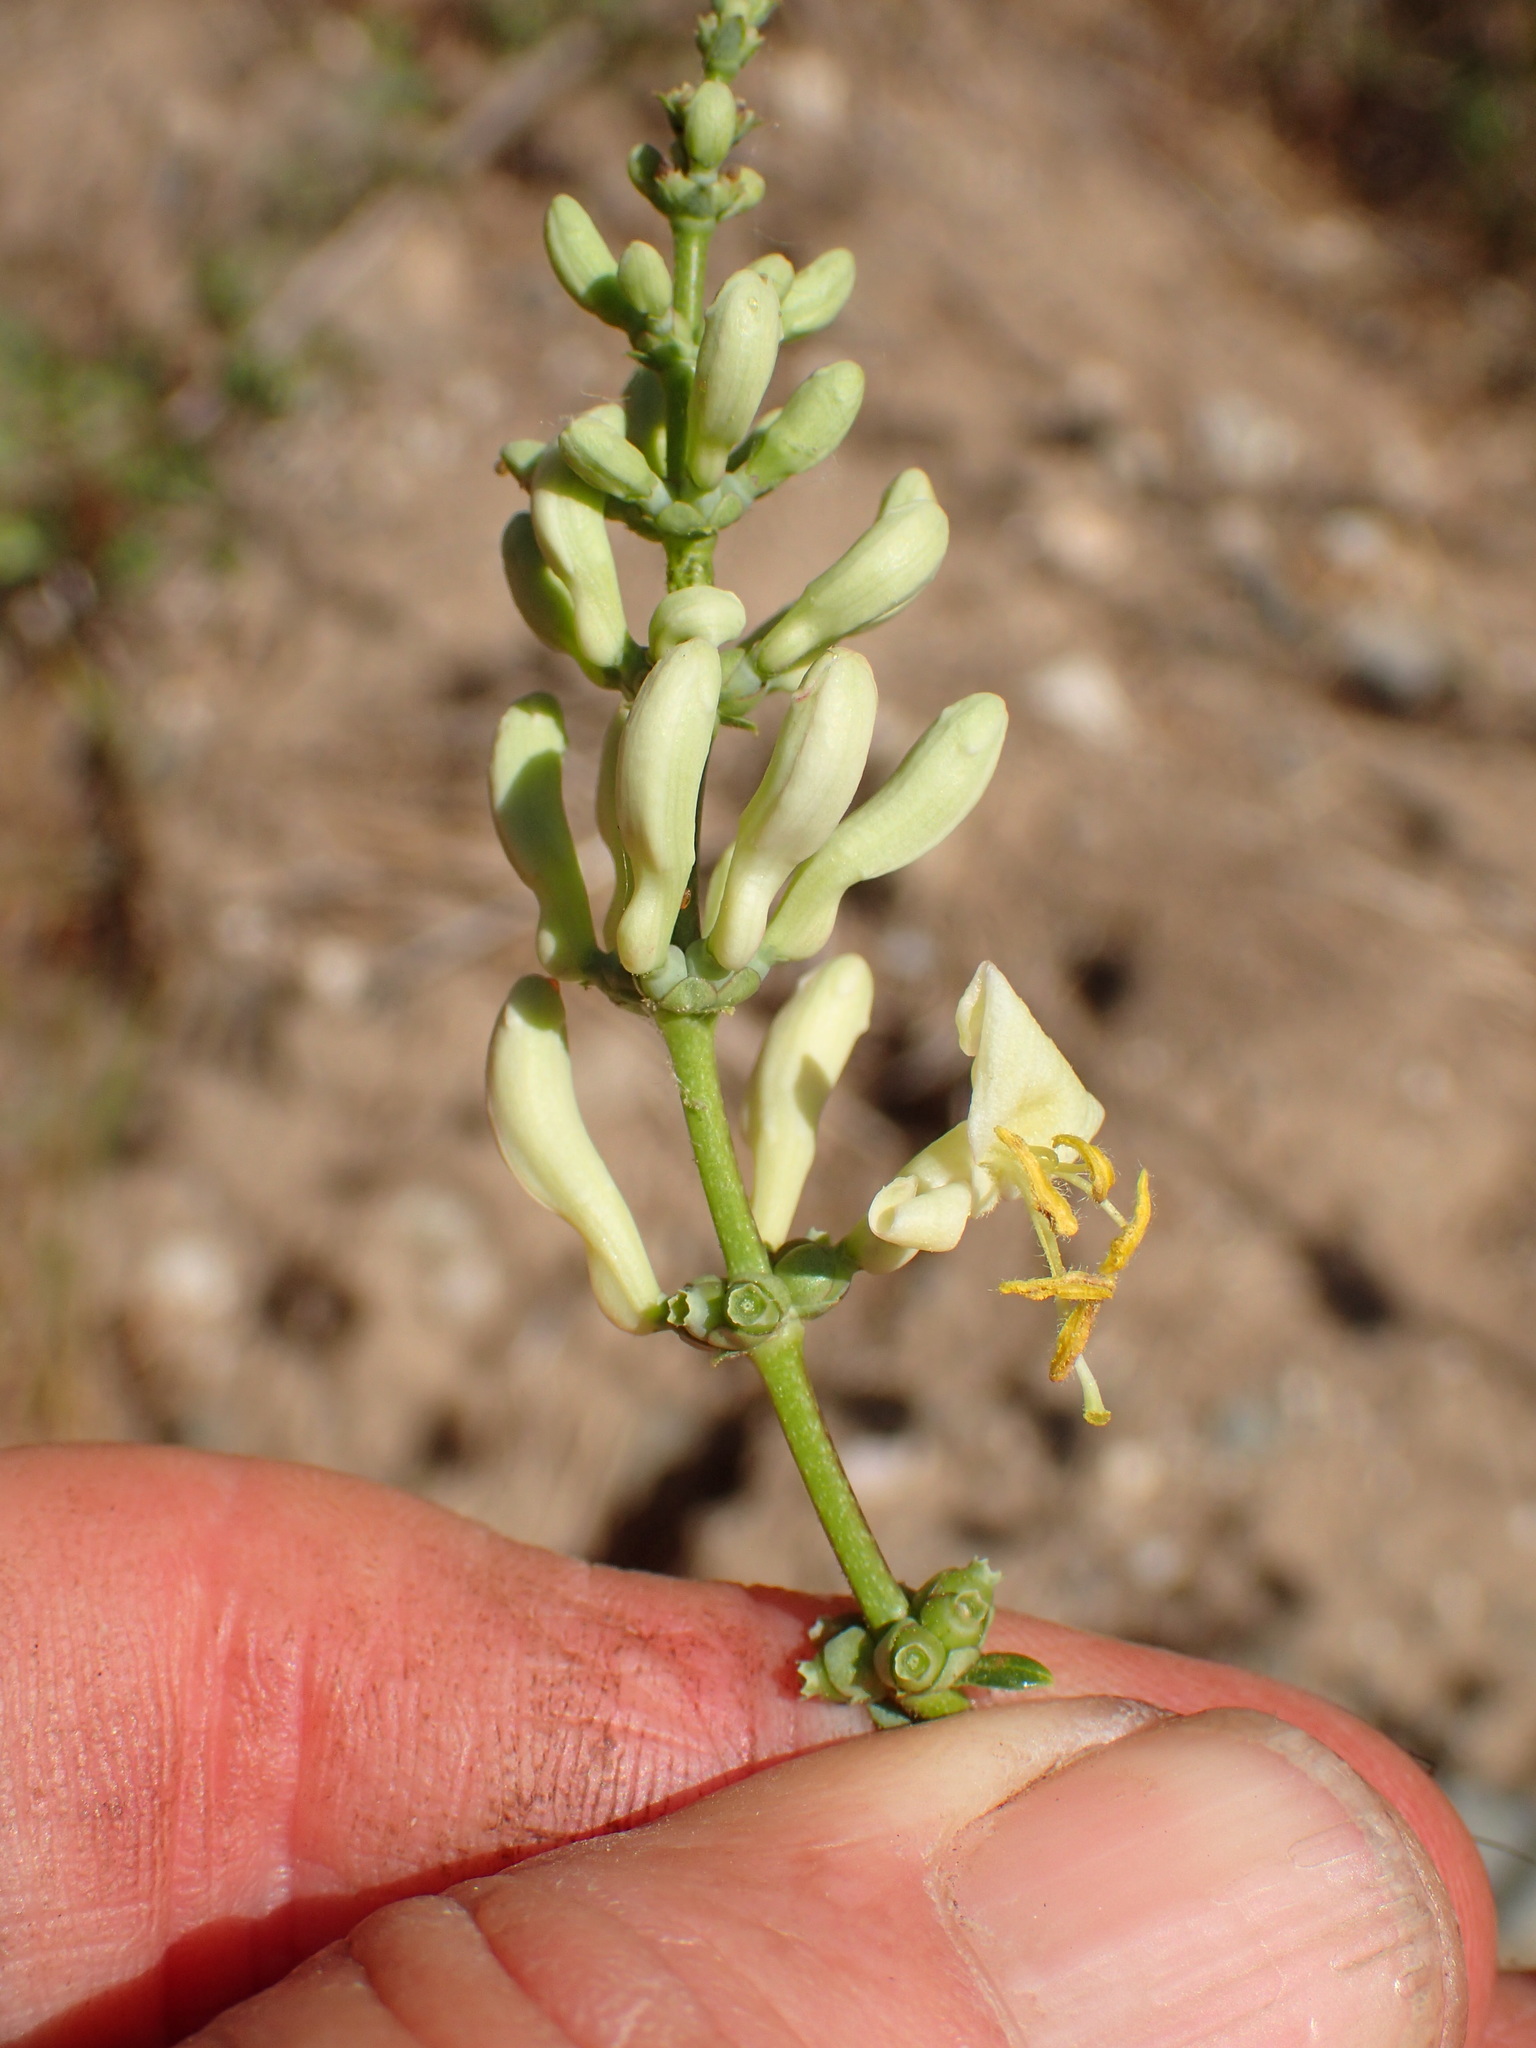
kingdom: Plantae
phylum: Tracheophyta
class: Magnoliopsida
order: Dipsacales
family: Caprifoliaceae
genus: Lonicera
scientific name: Lonicera subspicata
